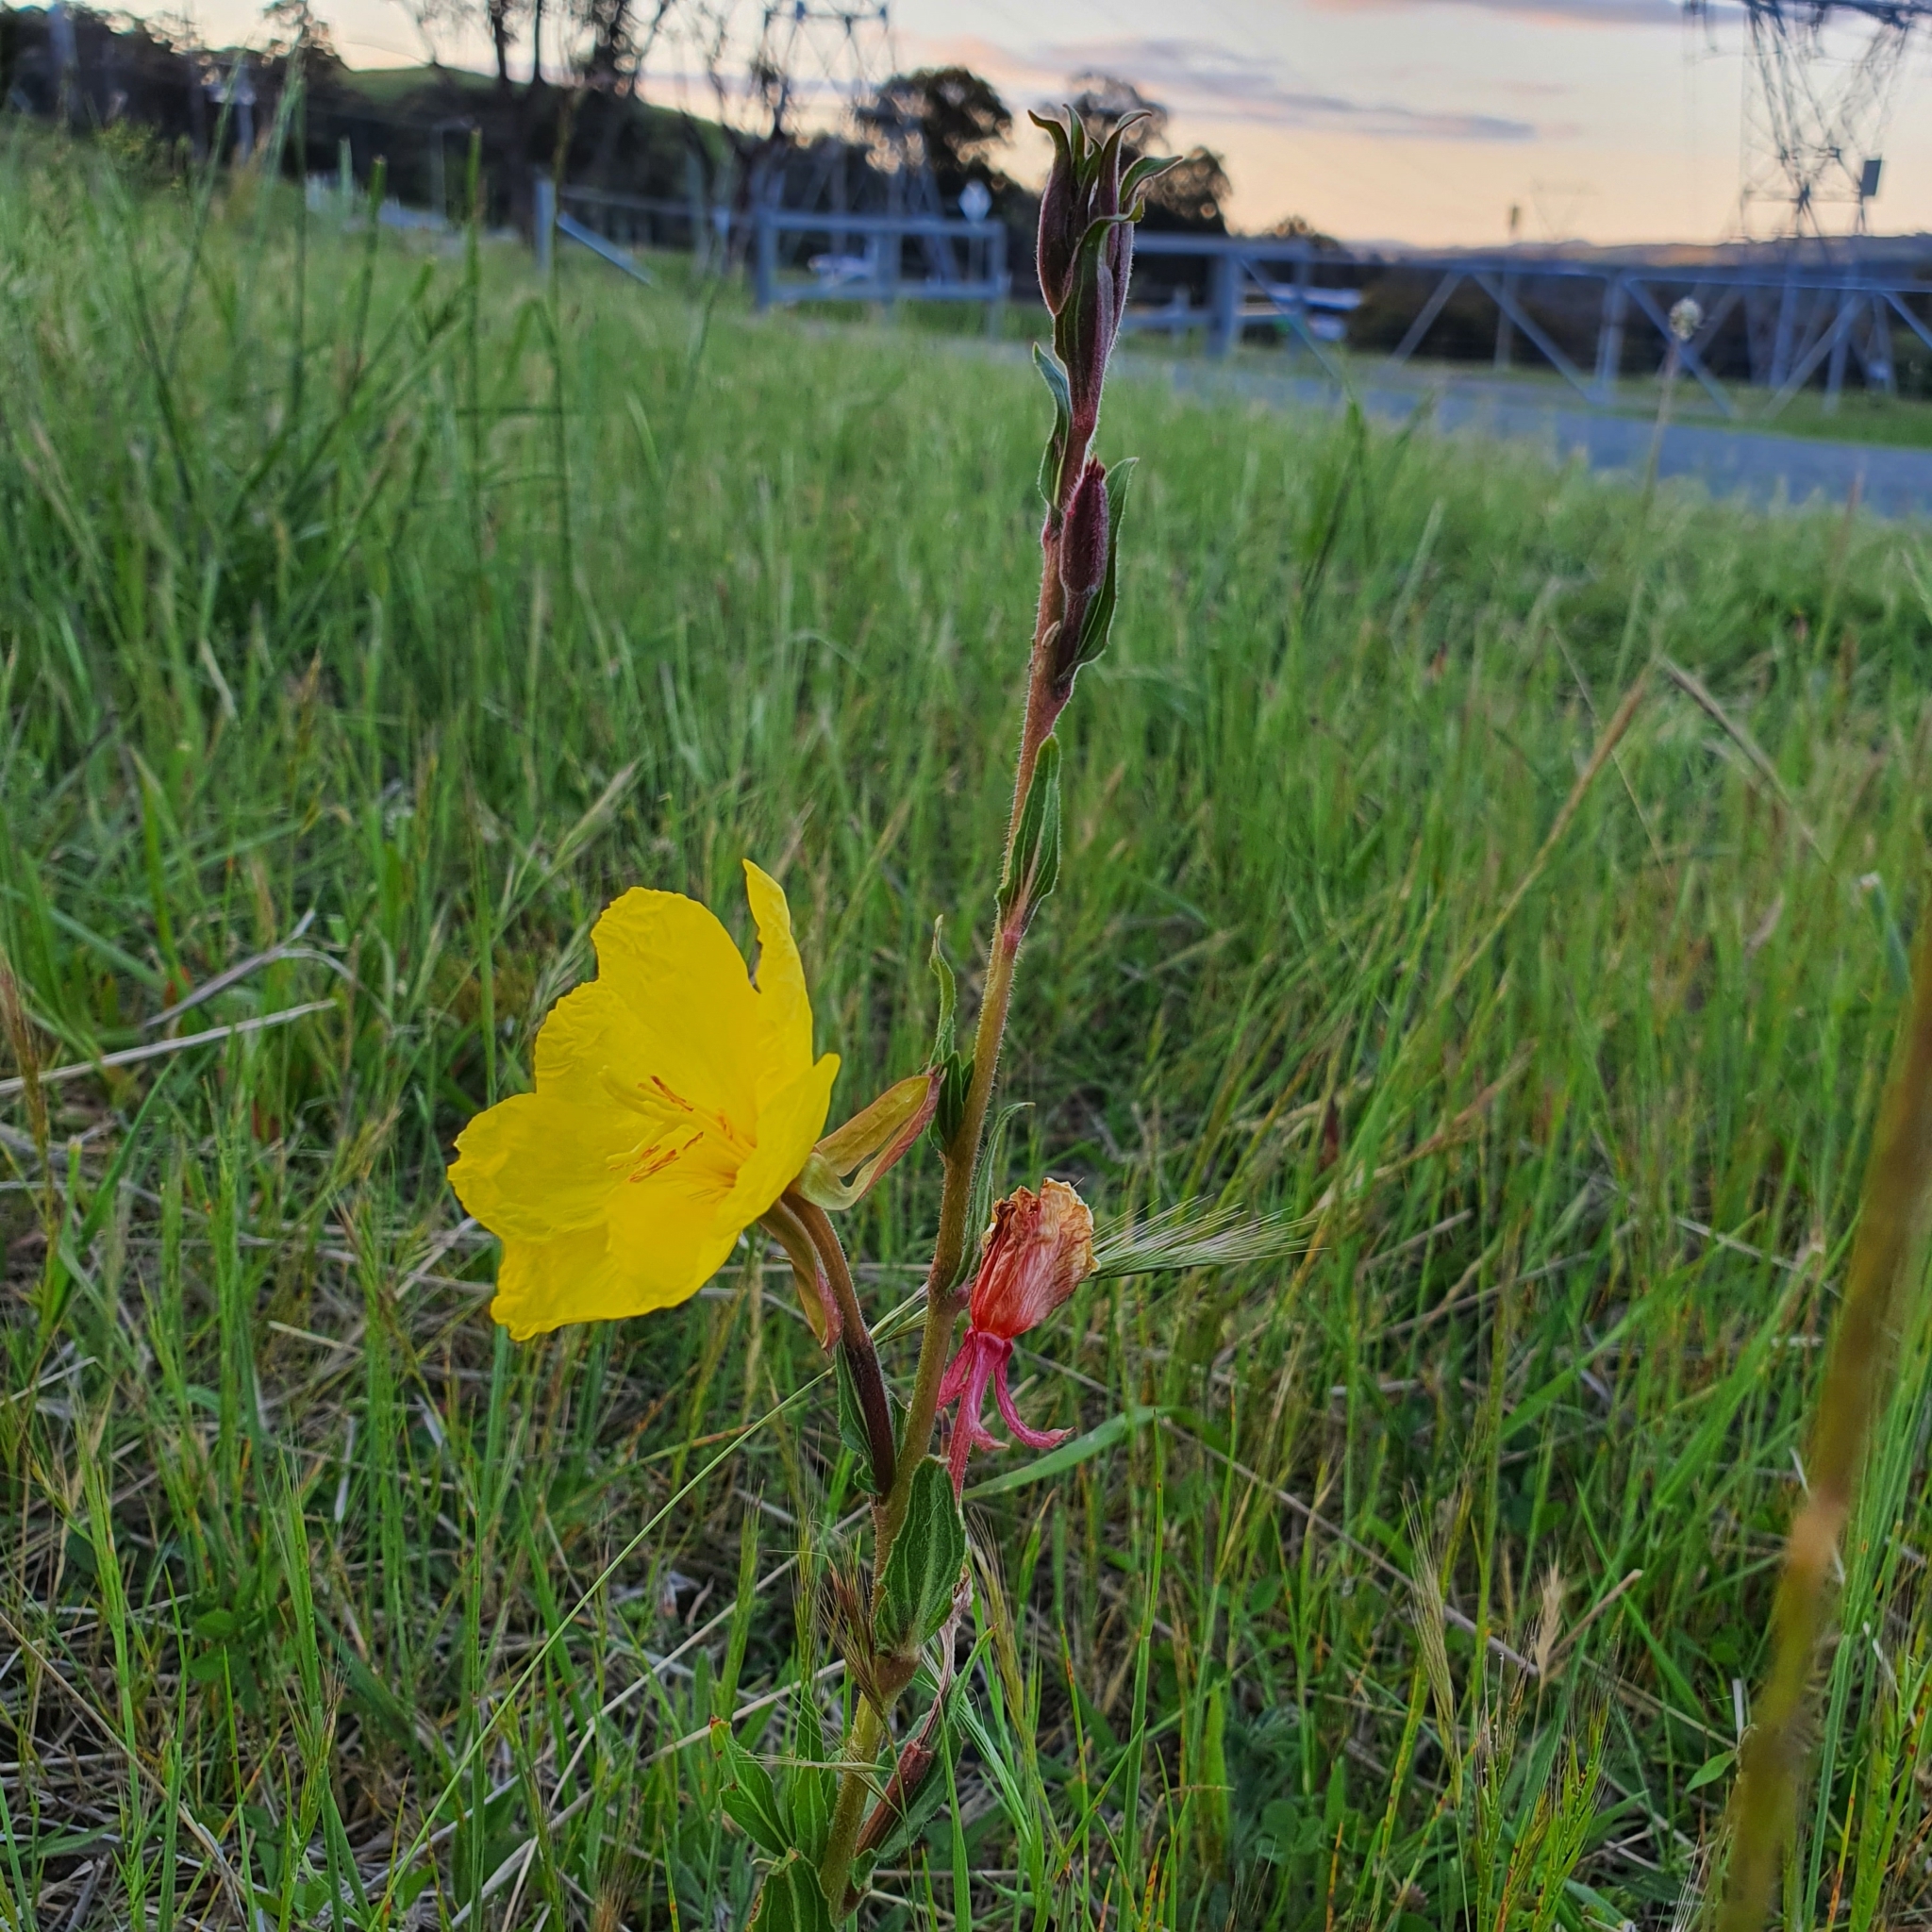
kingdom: Plantae
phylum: Tracheophyta
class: Magnoliopsida
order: Myrtales
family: Onagraceae
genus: Oenothera
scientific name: Oenothera stricta
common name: Fragrant evening-primrose
